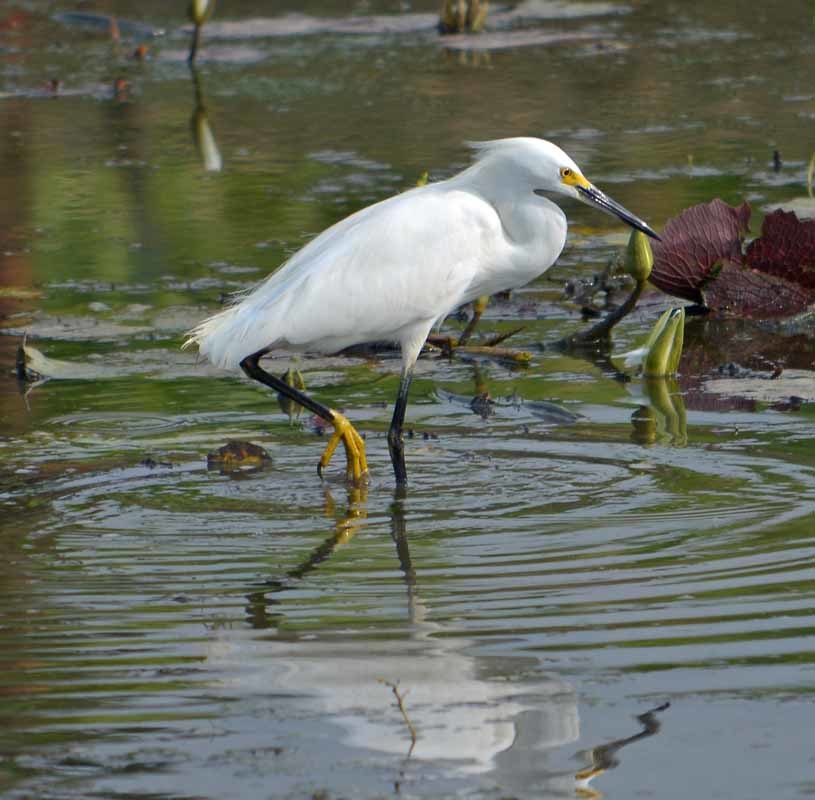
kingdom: Animalia
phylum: Chordata
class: Aves
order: Pelecaniformes
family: Ardeidae
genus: Egretta
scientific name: Egretta thula
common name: Snowy egret
